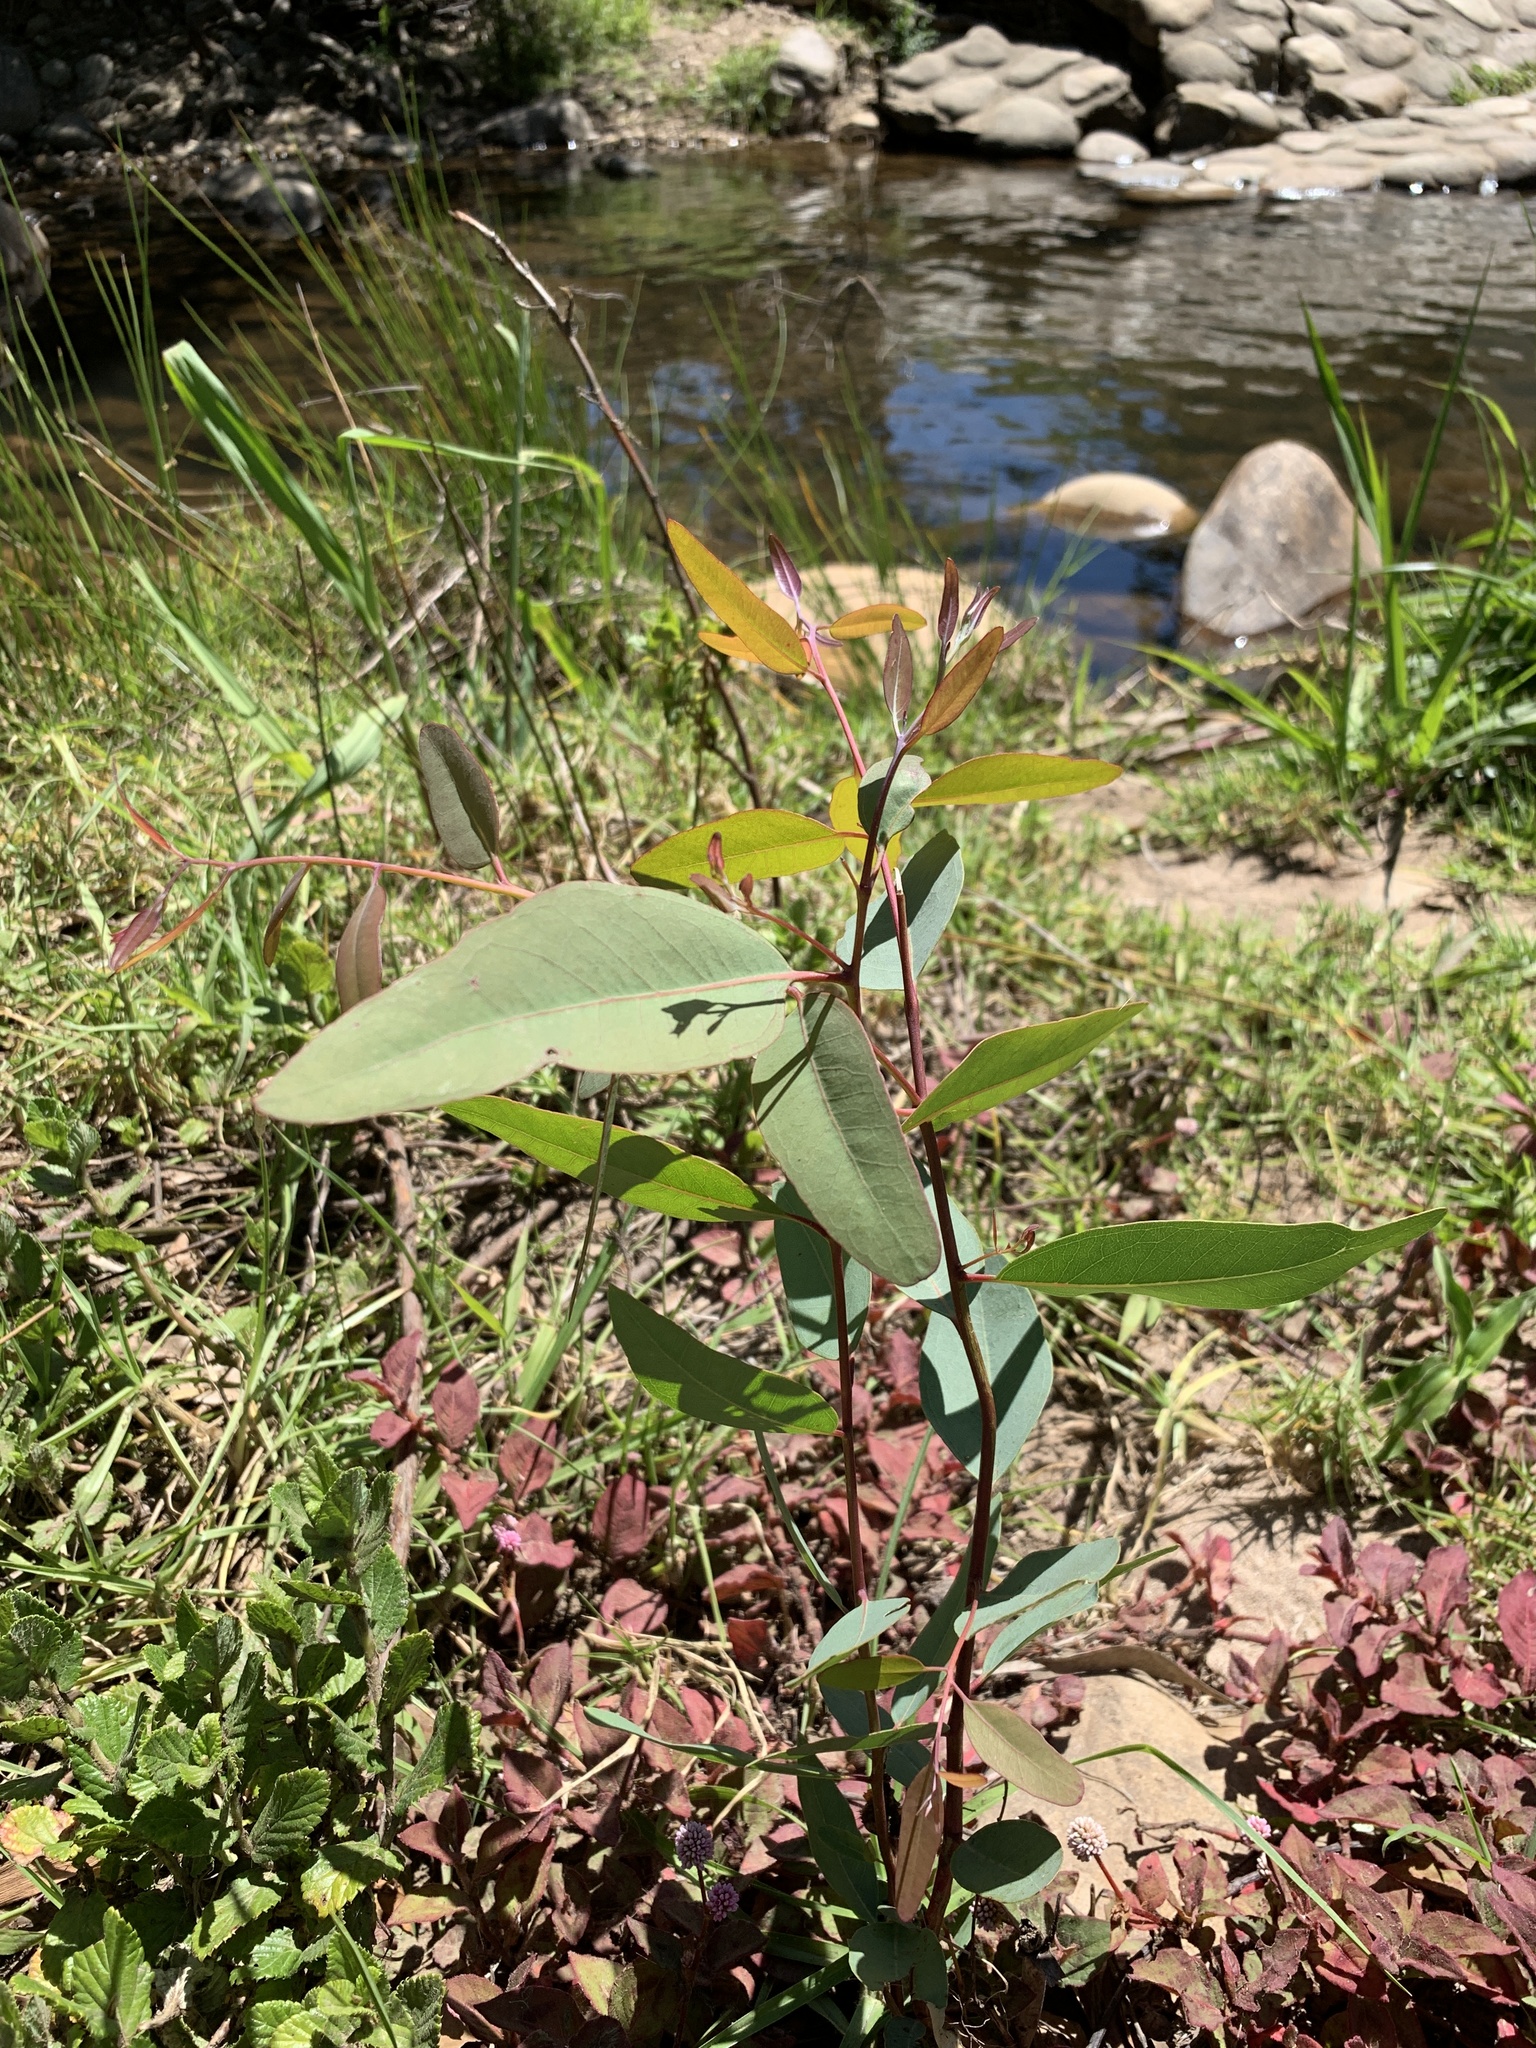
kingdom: Plantae
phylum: Tracheophyta
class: Magnoliopsida
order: Myrtales
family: Myrtaceae
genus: Eucalyptus
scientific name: Eucalyptus camaldulensis
